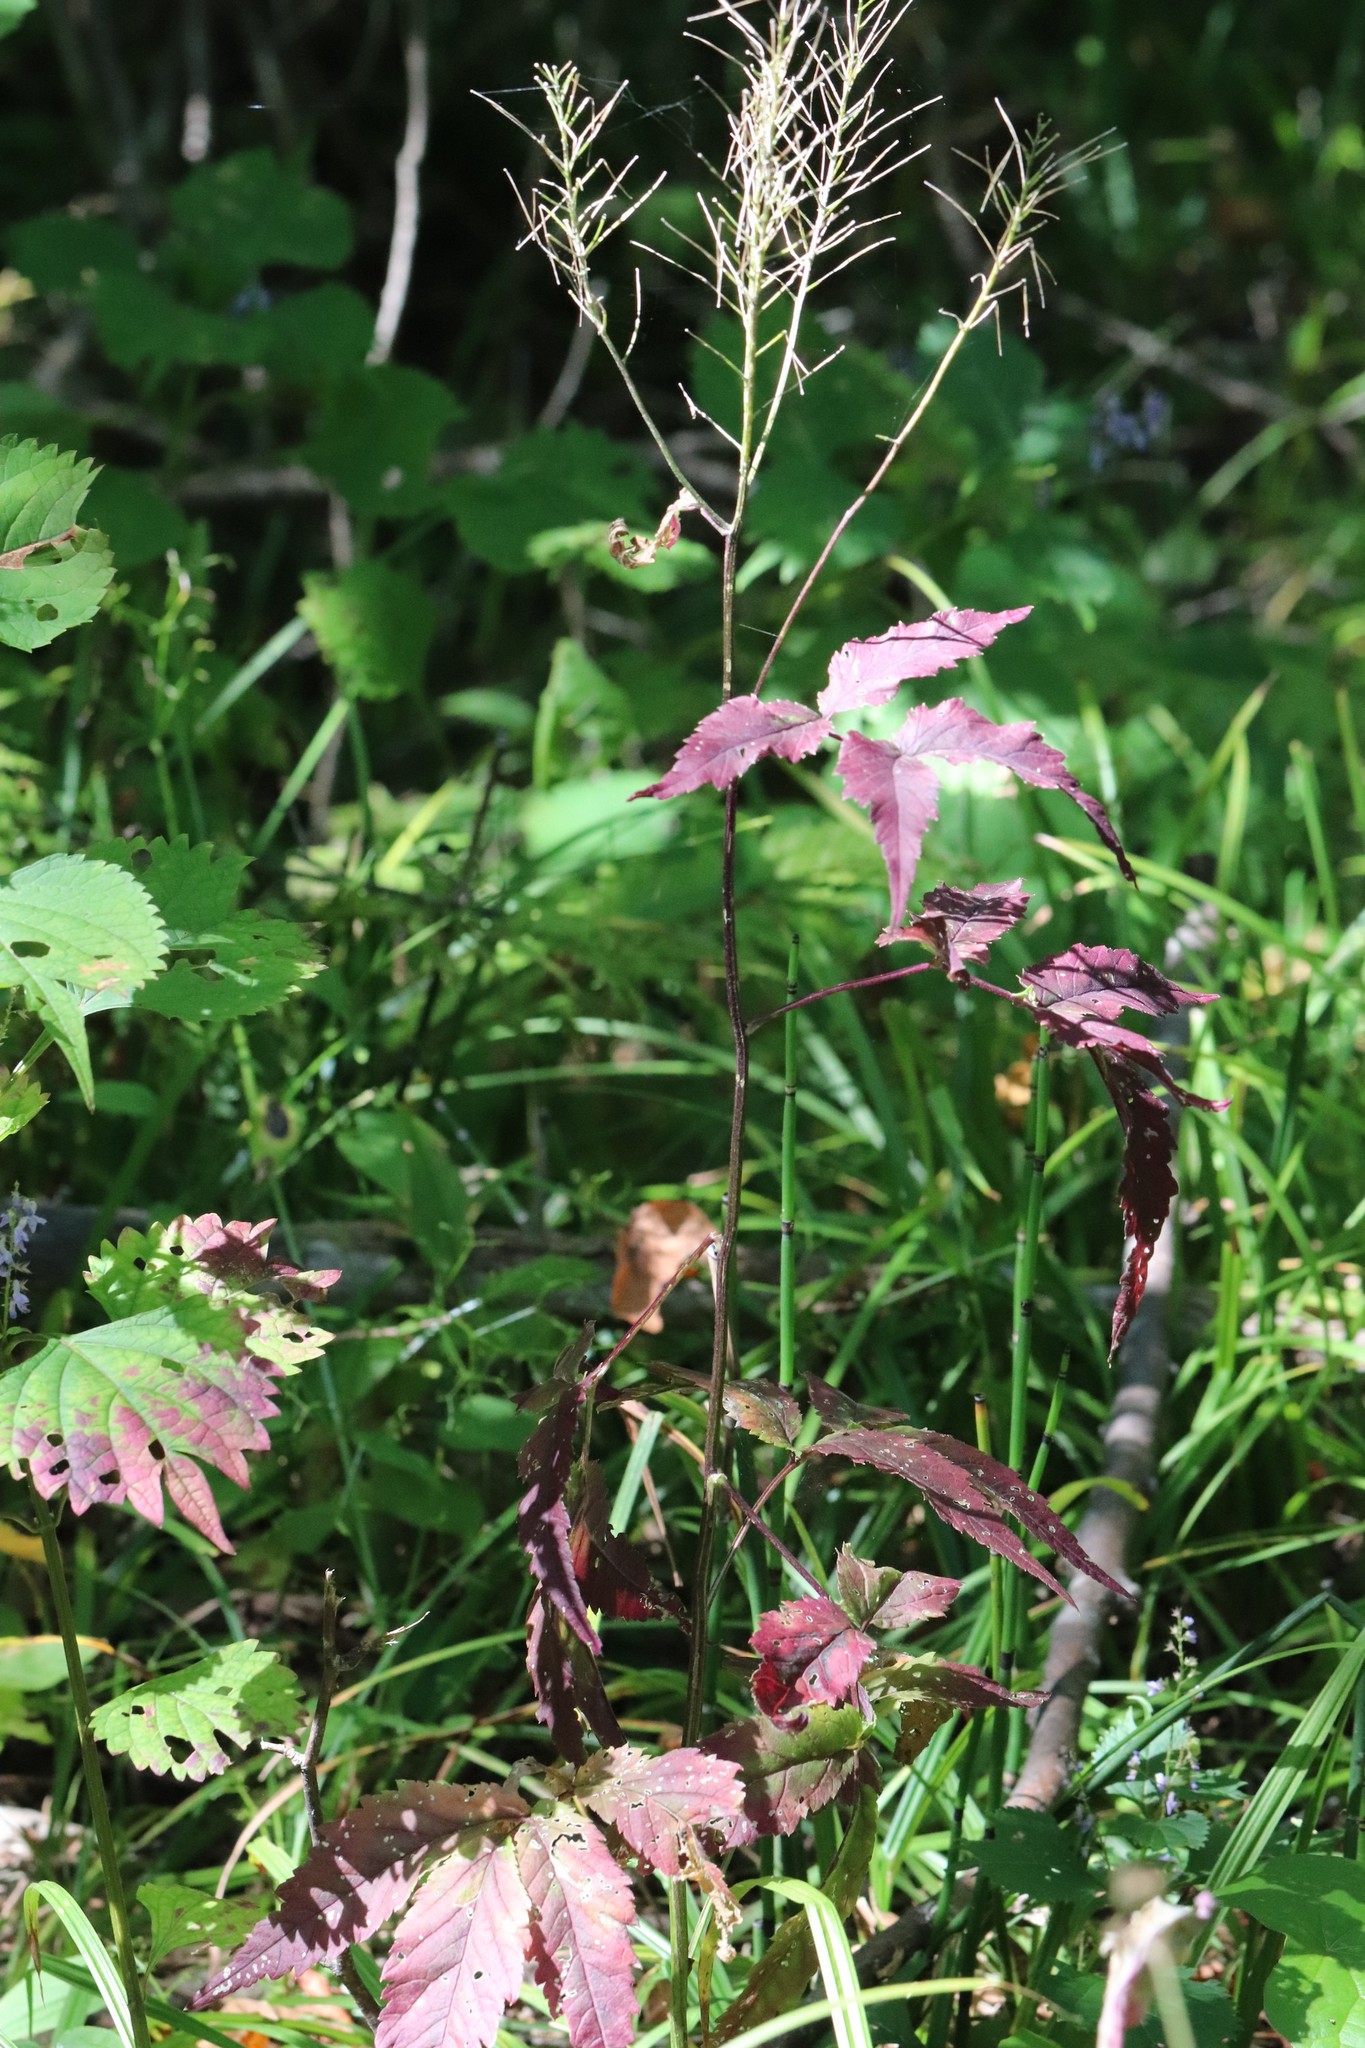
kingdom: Plantae
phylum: Tracheophyta
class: Magnoliopsida
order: Brassicales
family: Brassicaceae
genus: Cardamine
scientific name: Cardamine leucantha
